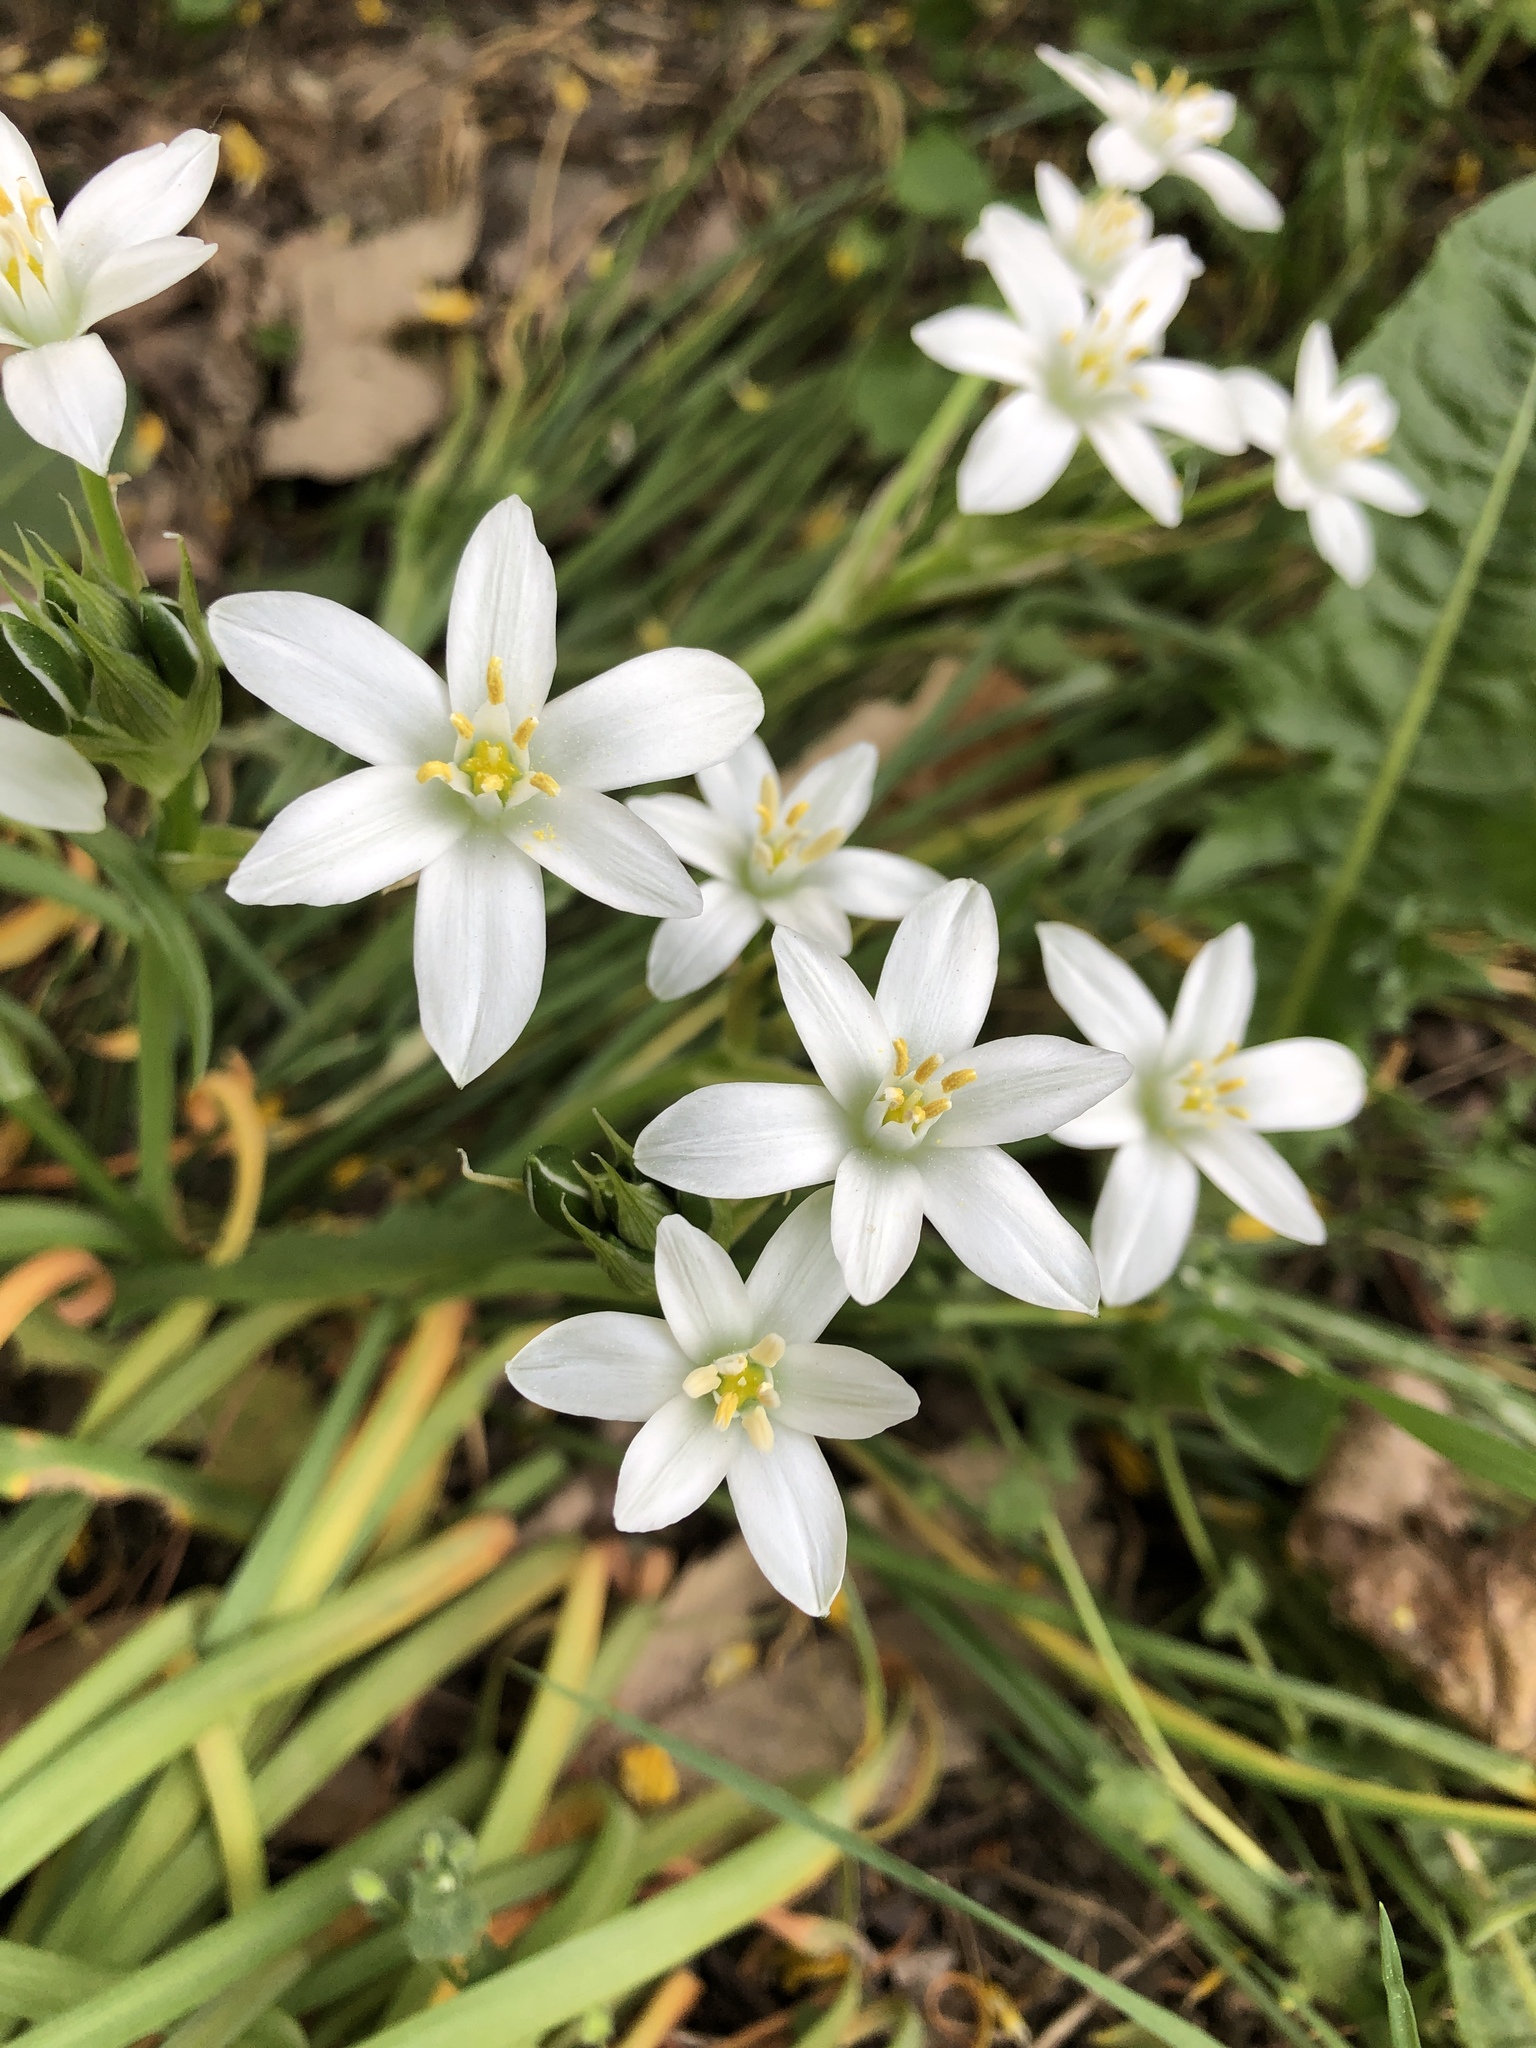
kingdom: Plantae
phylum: Tracheophyta
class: Liliopsida
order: Asparagales
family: Asparagaceae
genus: Ornithogalum
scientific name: Ornithogalum umbellatum
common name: Garden star-of-bethlehem
